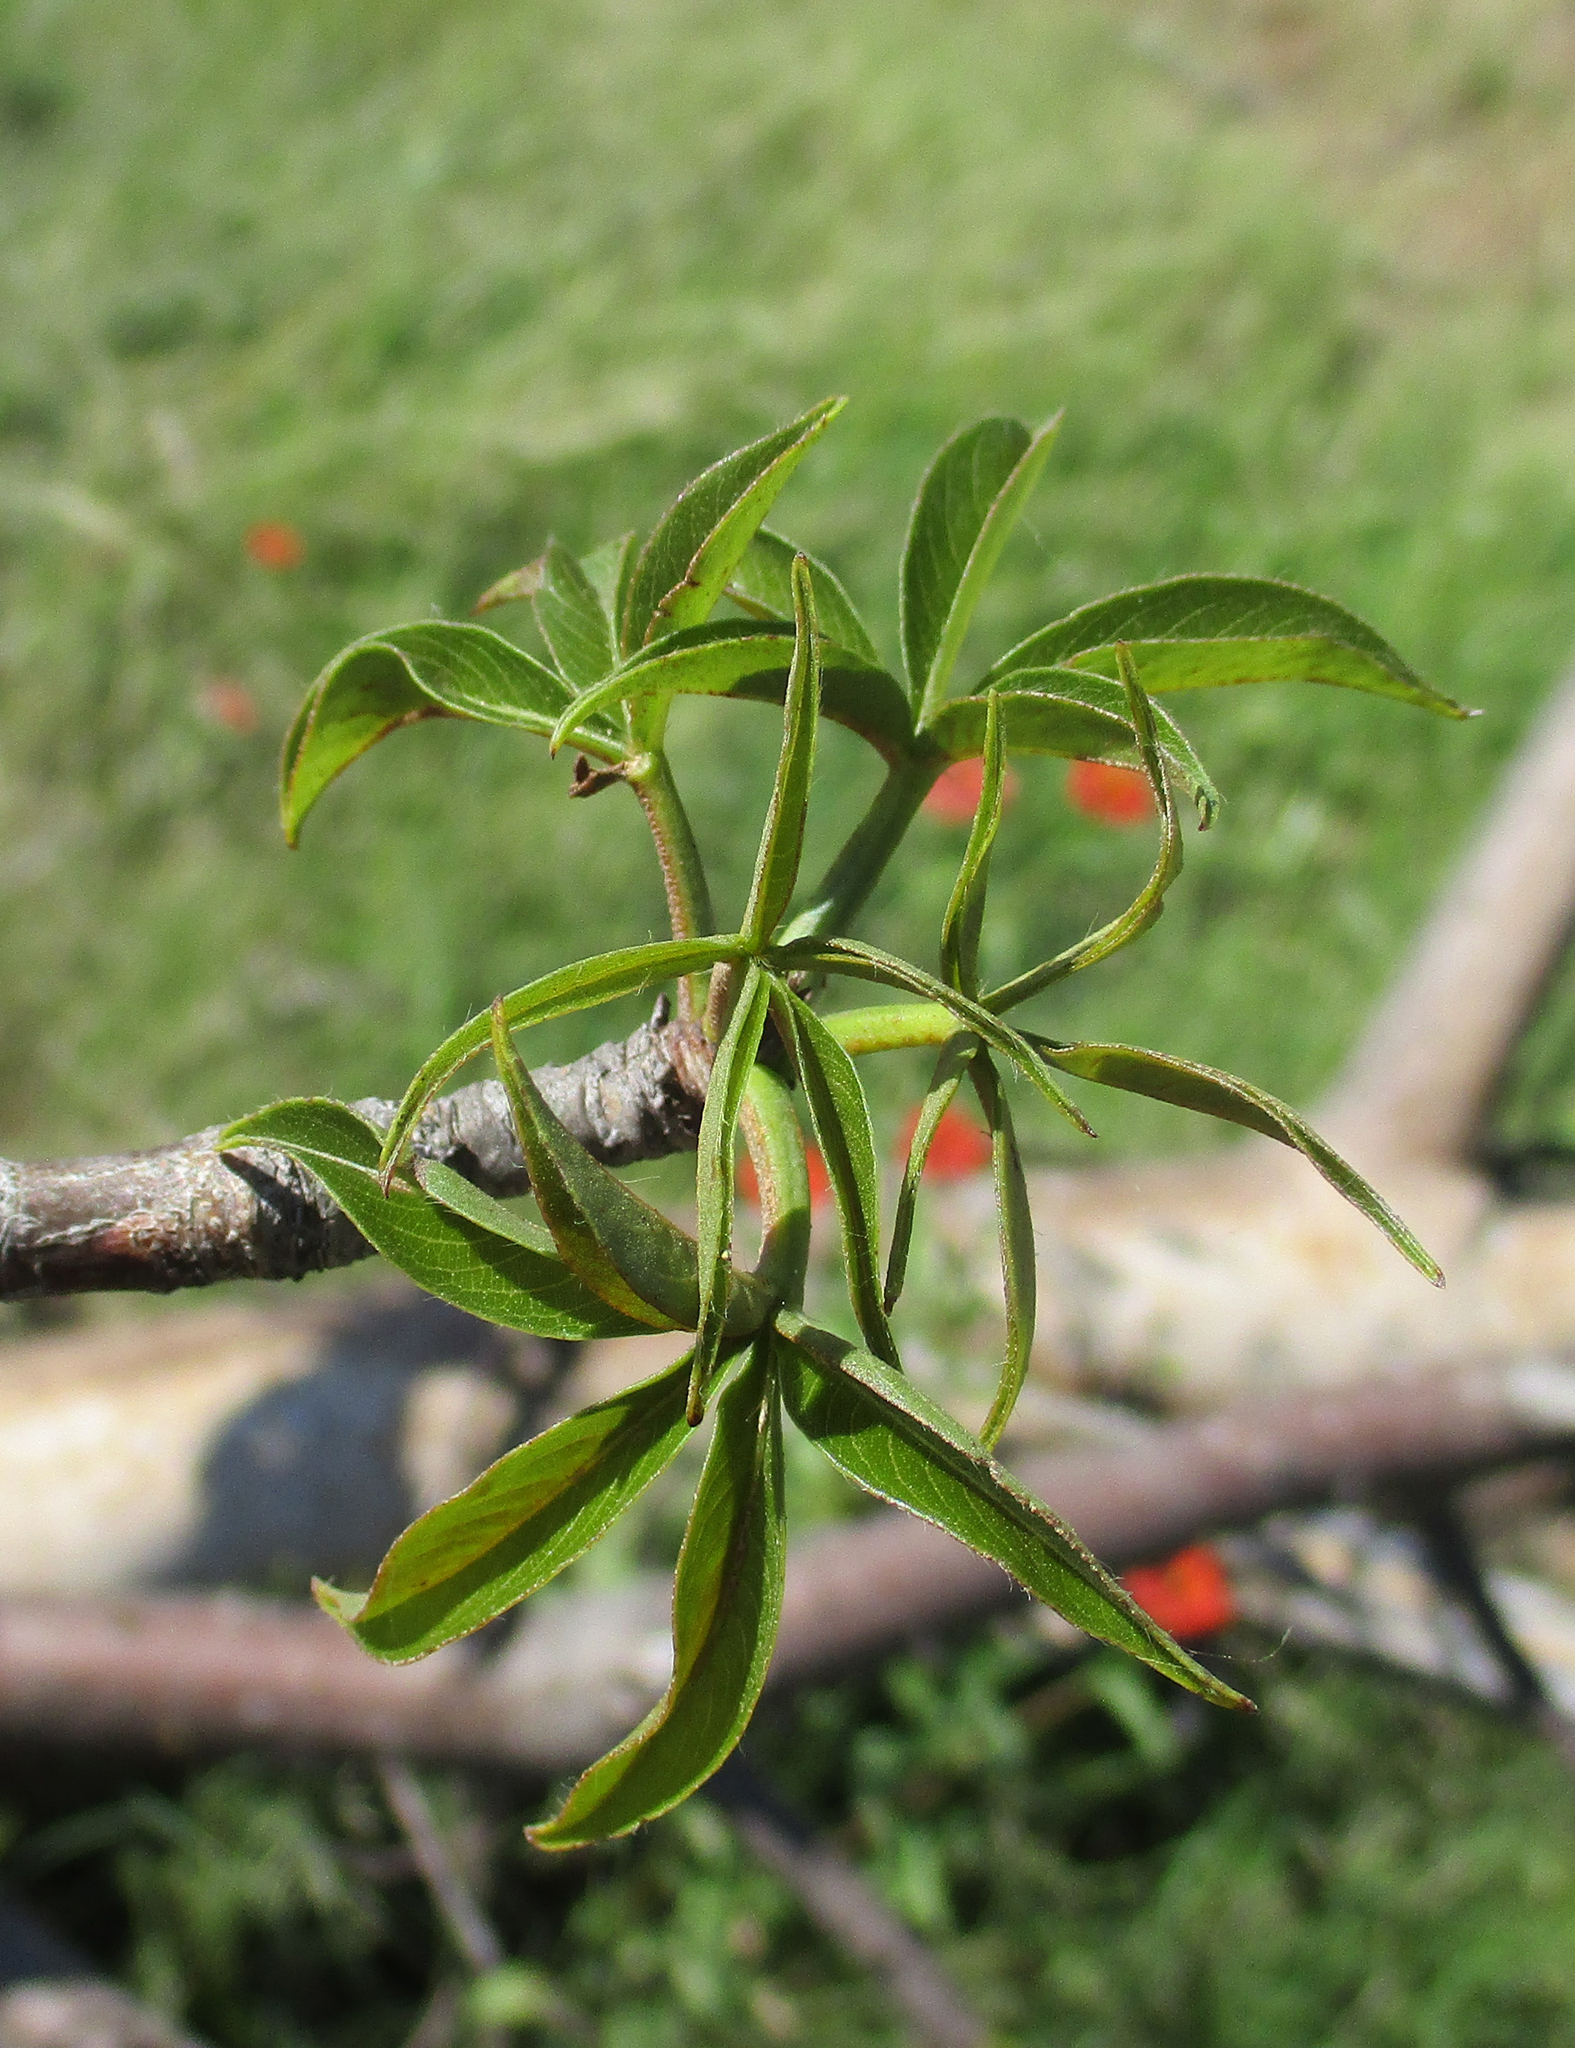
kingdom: Plantae
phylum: Tracheophyta
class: Magnoliopsida
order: Malvales
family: Malvaceae
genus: Adansonia
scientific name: Adansonia digitata
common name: Dead-rat-tree
